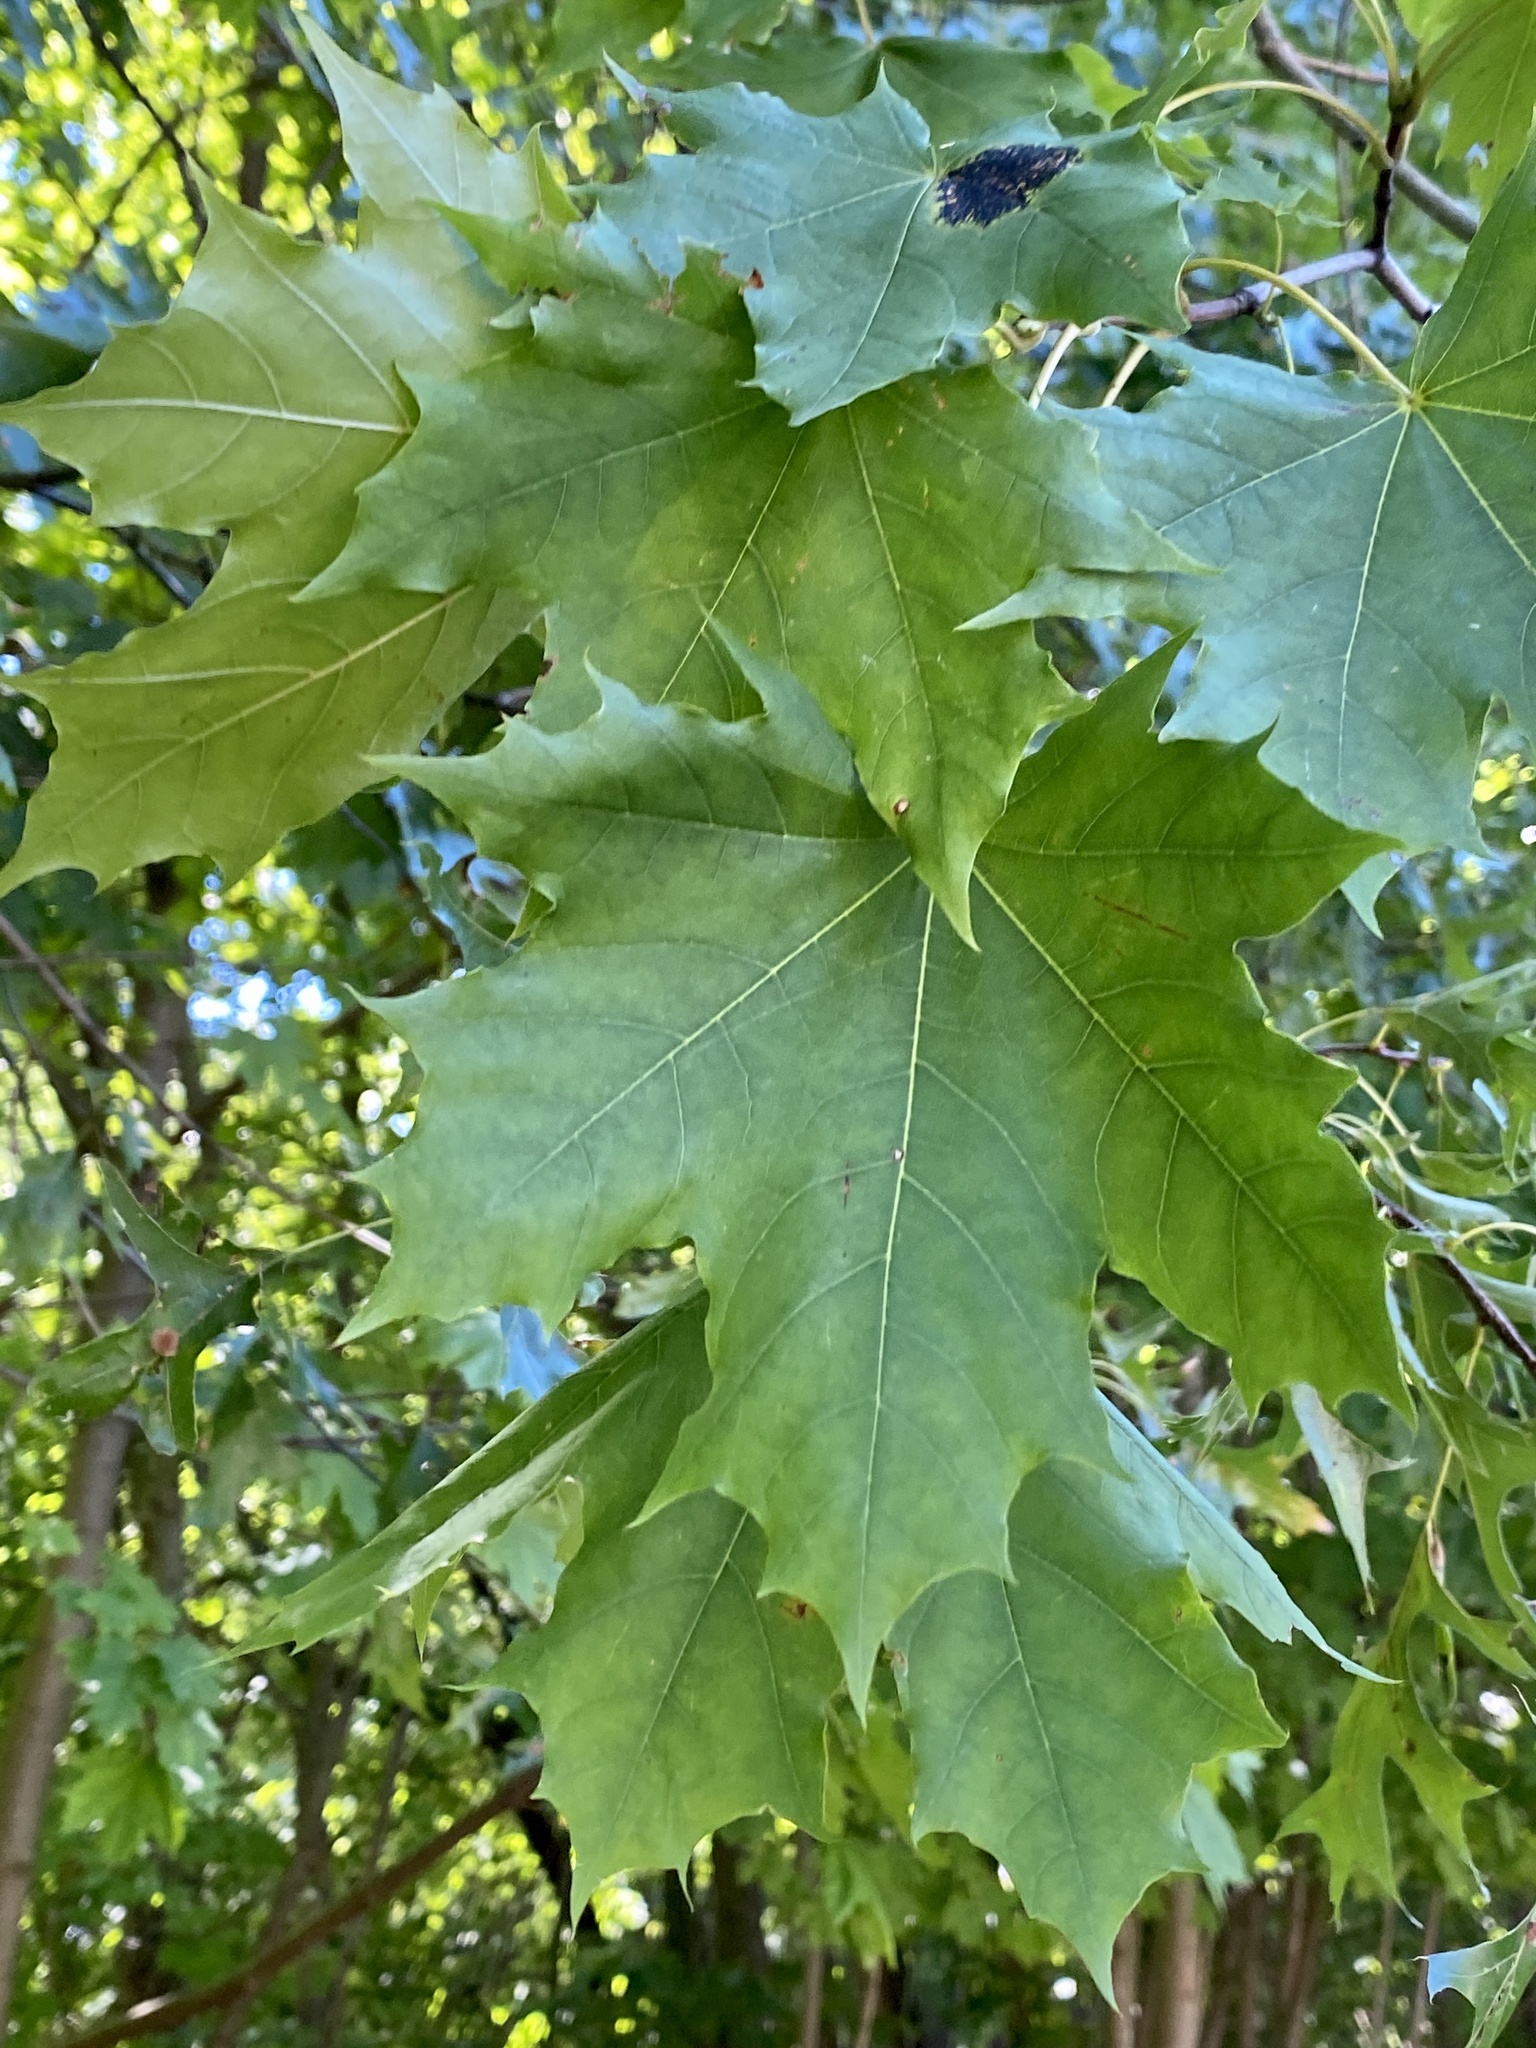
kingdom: Plantae
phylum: Tracheophyta
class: Magnoliopsida
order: Sapindales
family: Sapindaceae
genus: Acer
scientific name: Acer platanoides
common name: Norway maple
